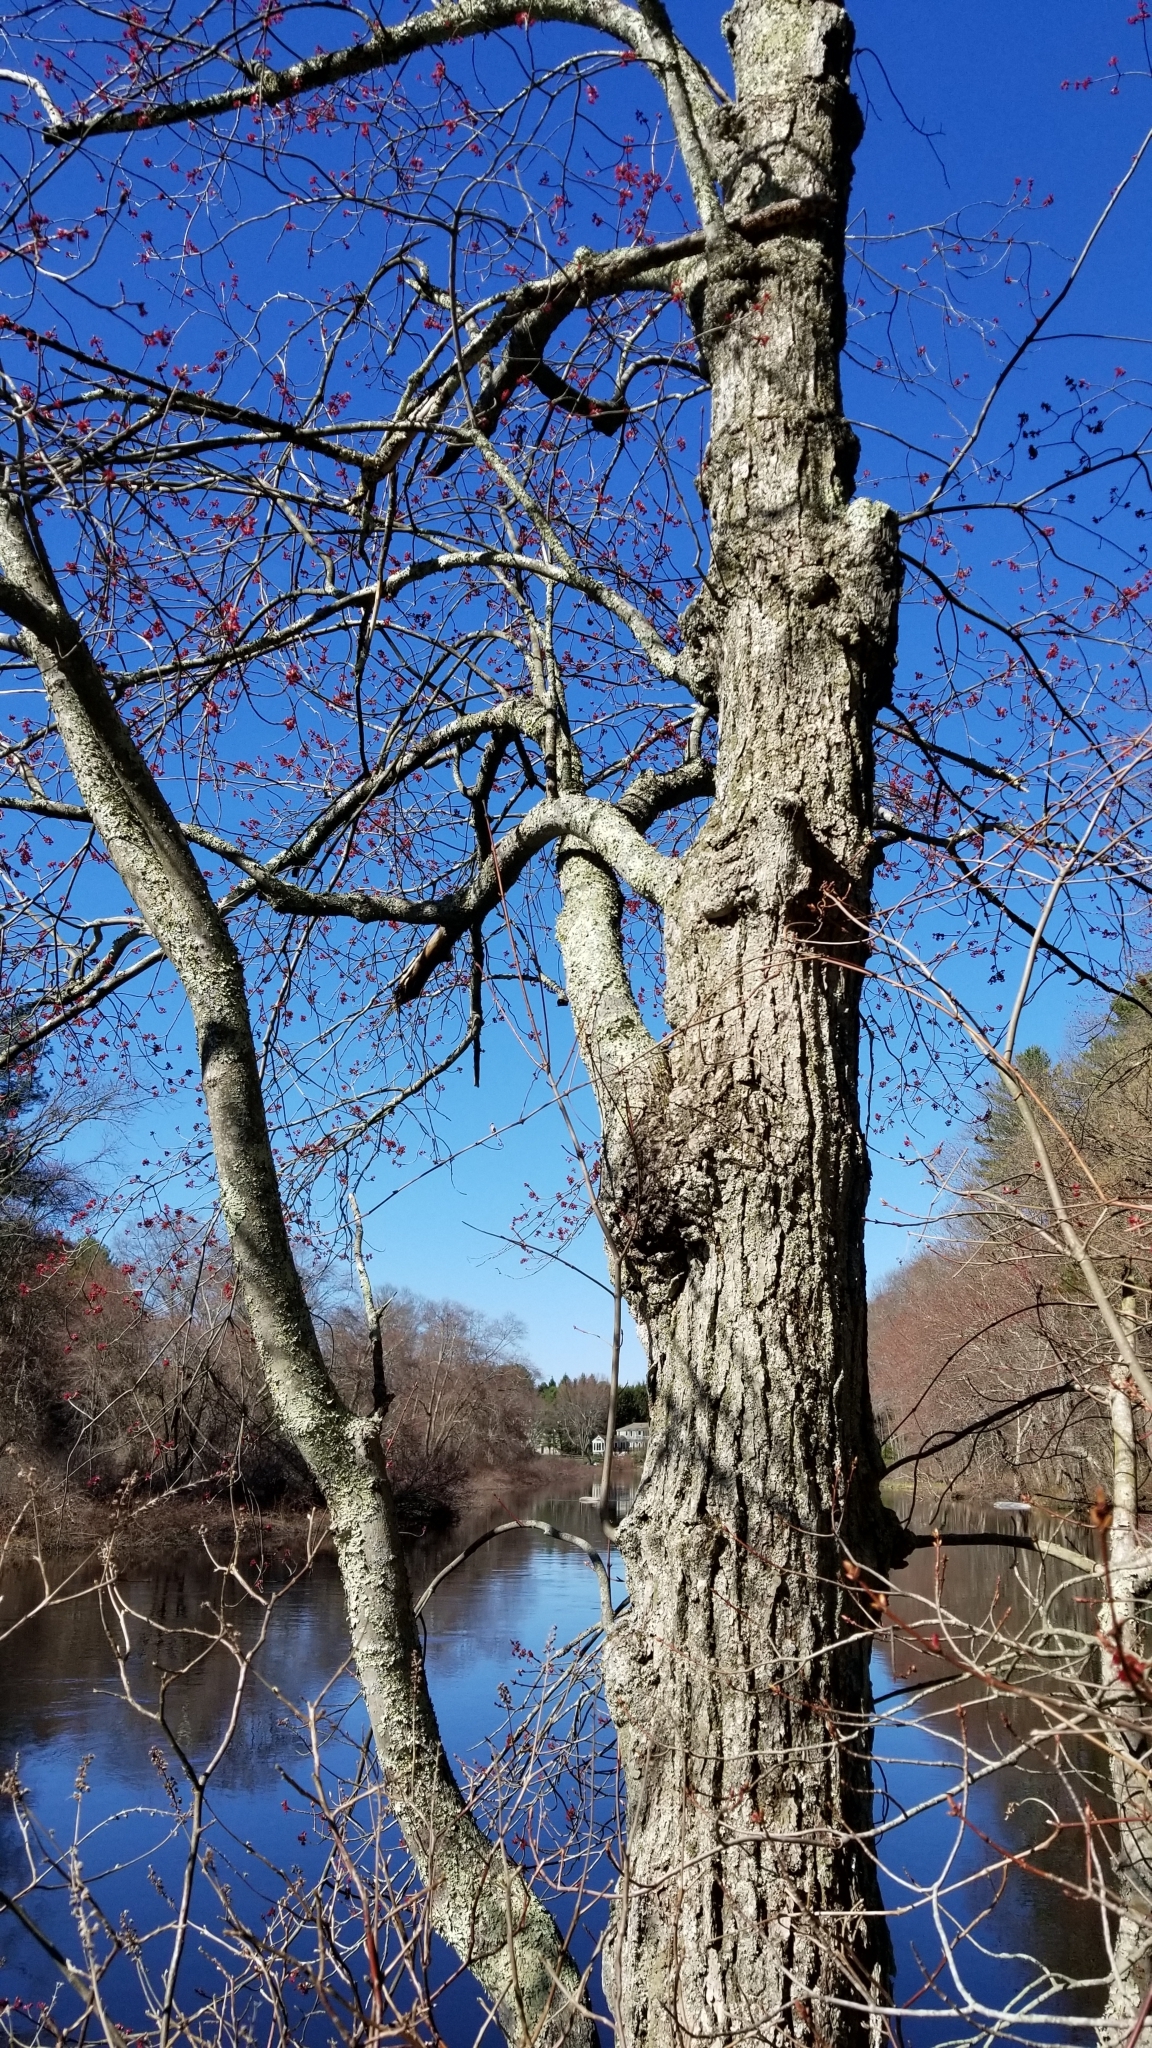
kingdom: Plantae
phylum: Tracheophyta
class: Magnoliopsida
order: Sapindales
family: Sapindaceae
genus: Acer
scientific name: Acer rubrum
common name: Red maple
